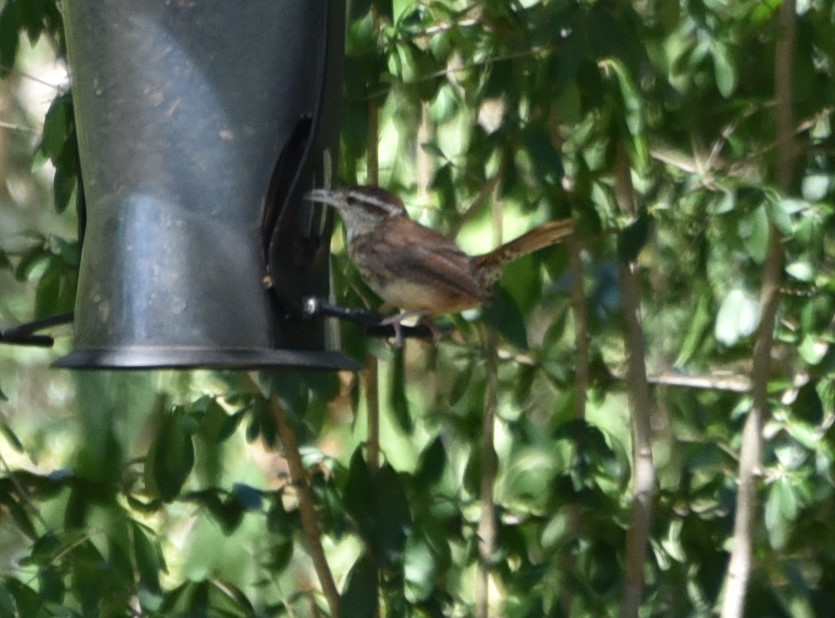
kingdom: Animalia
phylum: Chordata
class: Aves
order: Passeriformes
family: Troglodytidae
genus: Thryothorus
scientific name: Thryothorus ludovicianus
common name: Carolina wren
